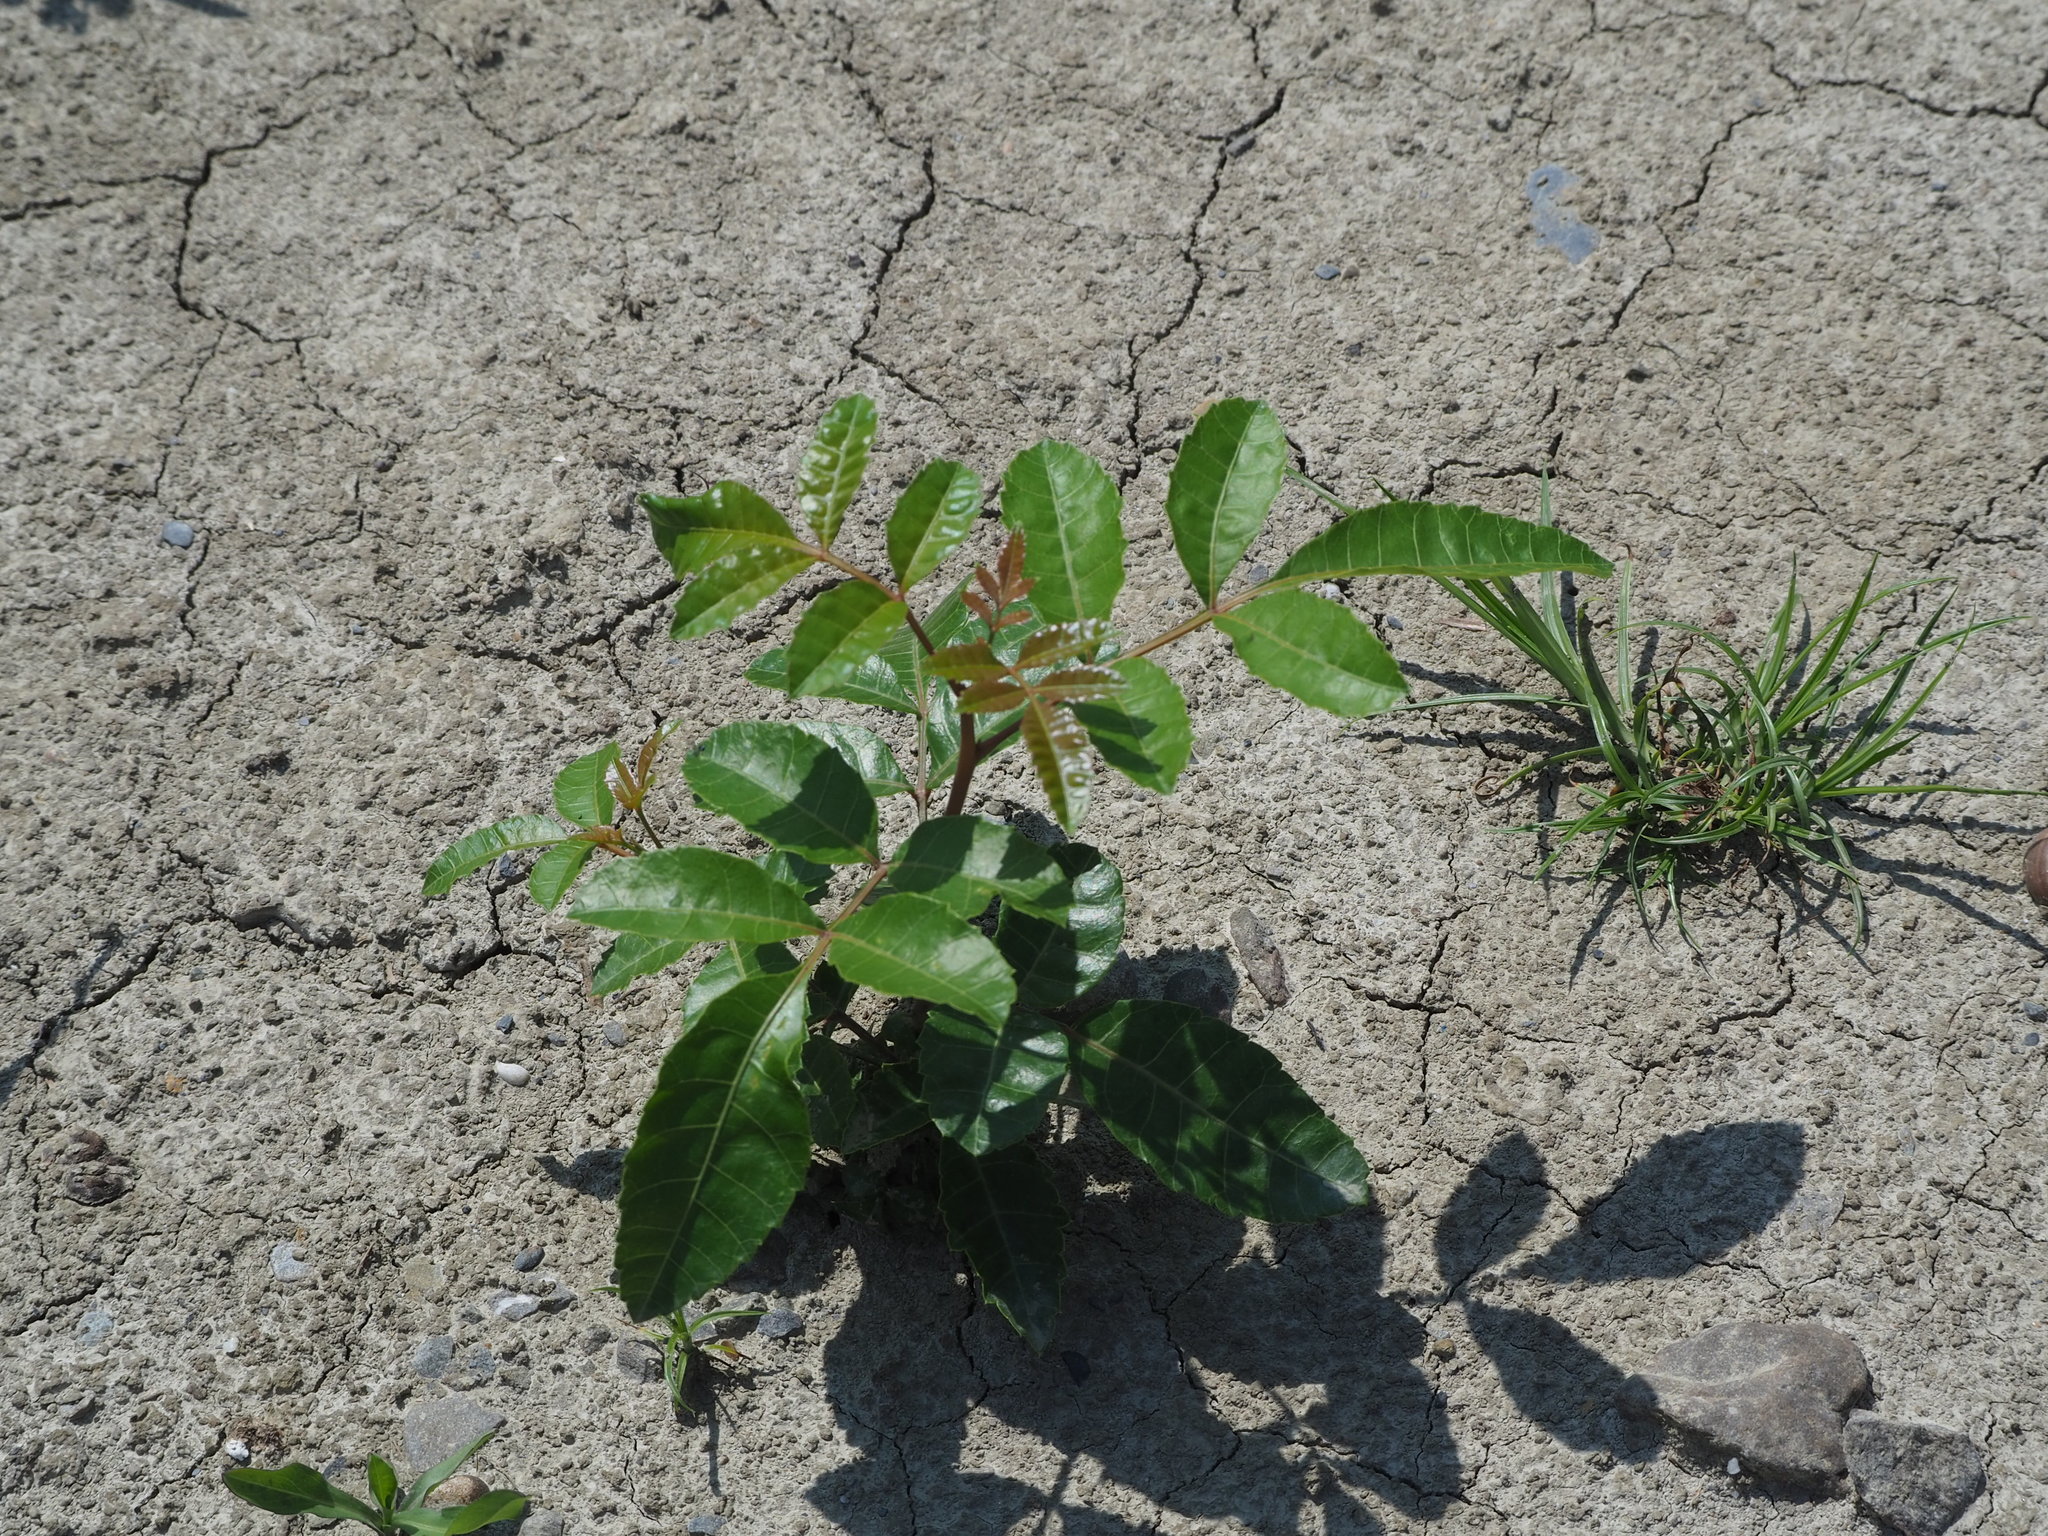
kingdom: Plantae
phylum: Tracheophyta
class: Magnoliopsida
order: Sapindales
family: Anacardiaceae
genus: Schinus
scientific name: Schinus terebinthifolia
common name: Brazilian peppertree
